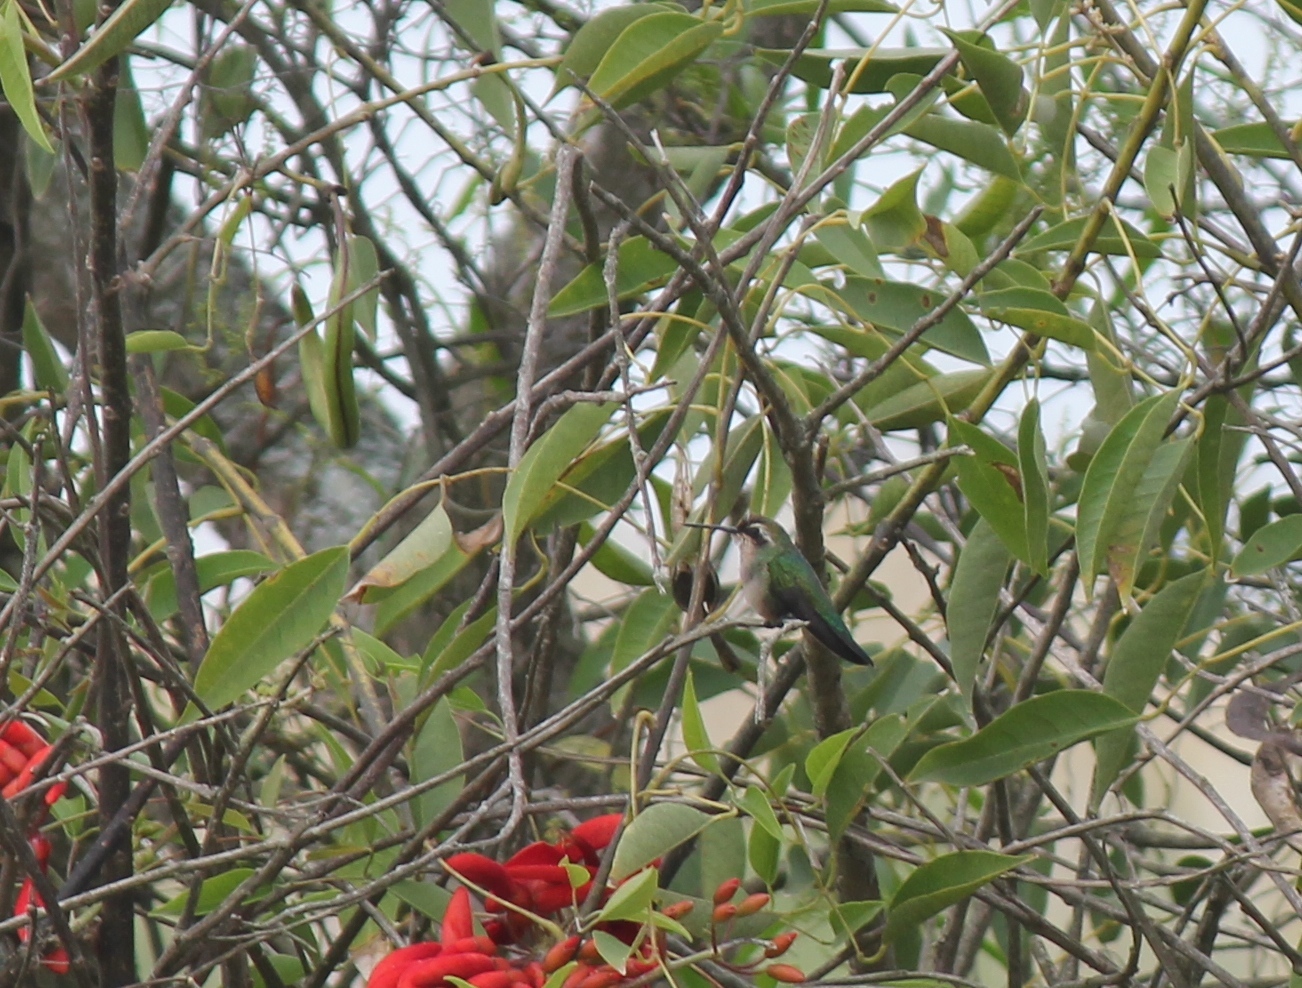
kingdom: Animalia
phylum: Chordata
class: Aves
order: Apodiformes
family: Trochilidae
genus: Chlorostilbon
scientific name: Chlorostilbon lucidus
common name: Glittering-bellied emerald
